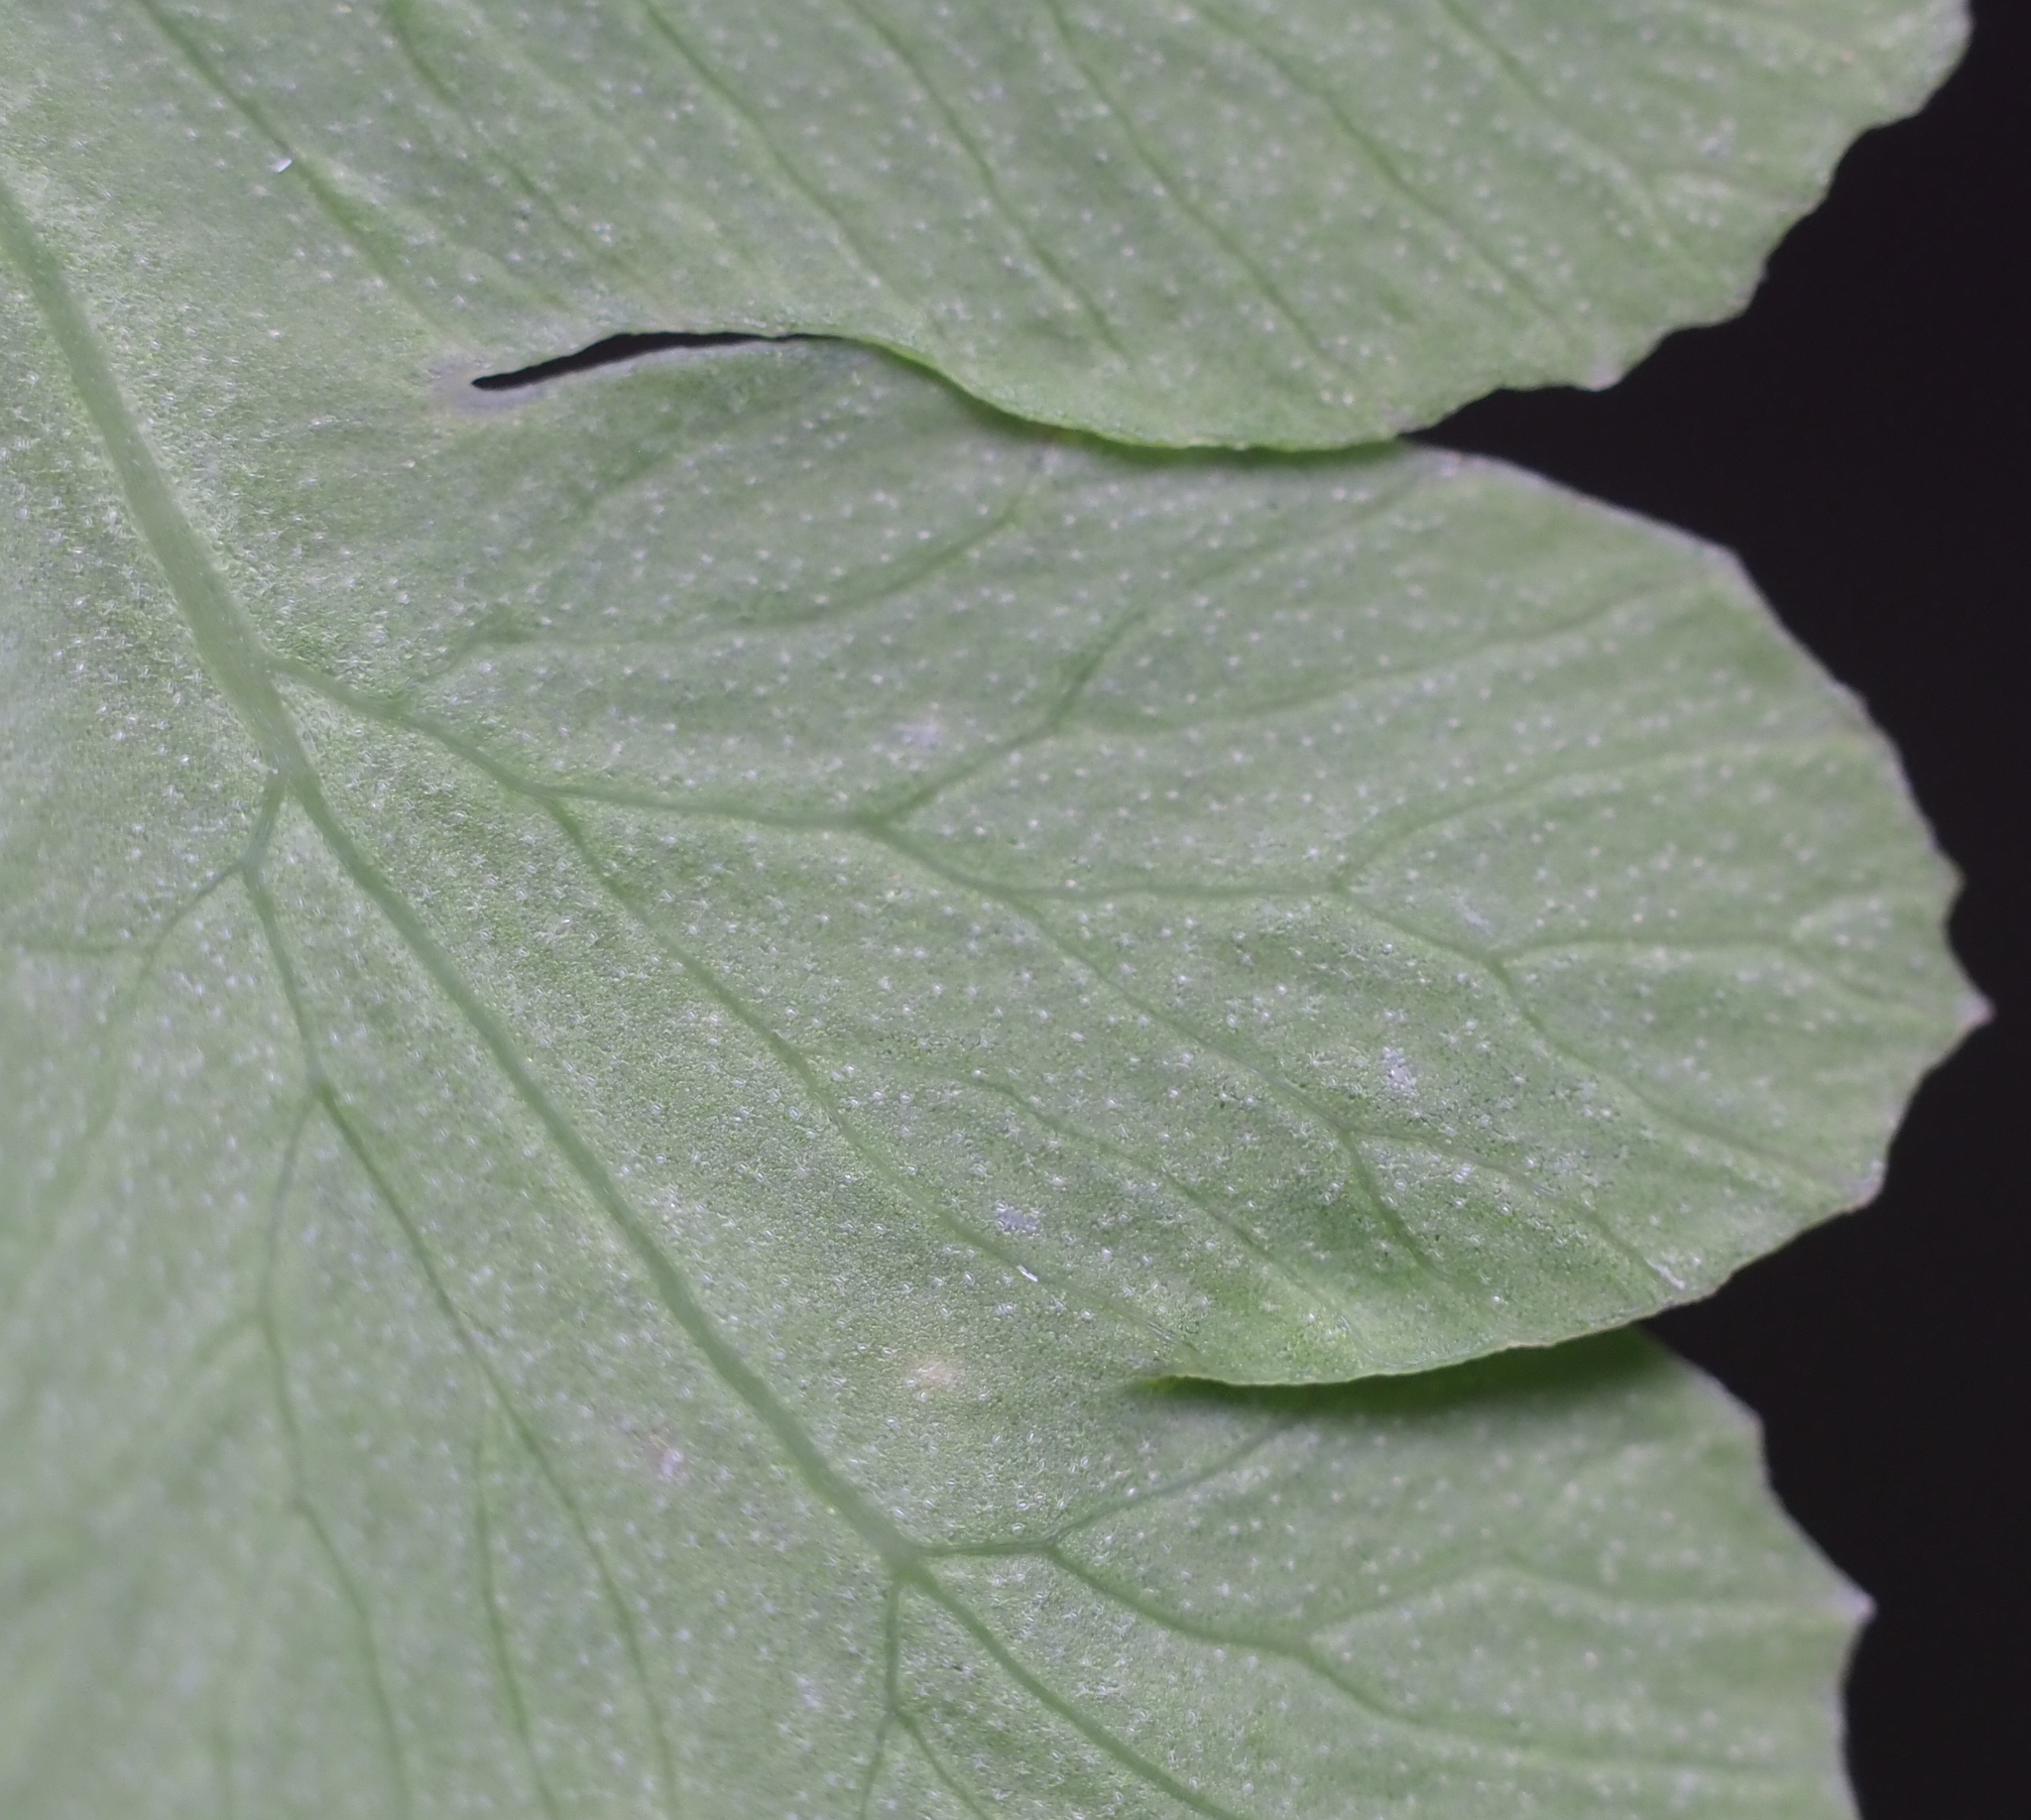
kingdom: Plantae
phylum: Tracheophyta
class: Polypodiopsida
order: Osmundales
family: Osmundaceae
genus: Claytosmunda
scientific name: Claytosmunda claytoniana
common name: Clayton's fern
